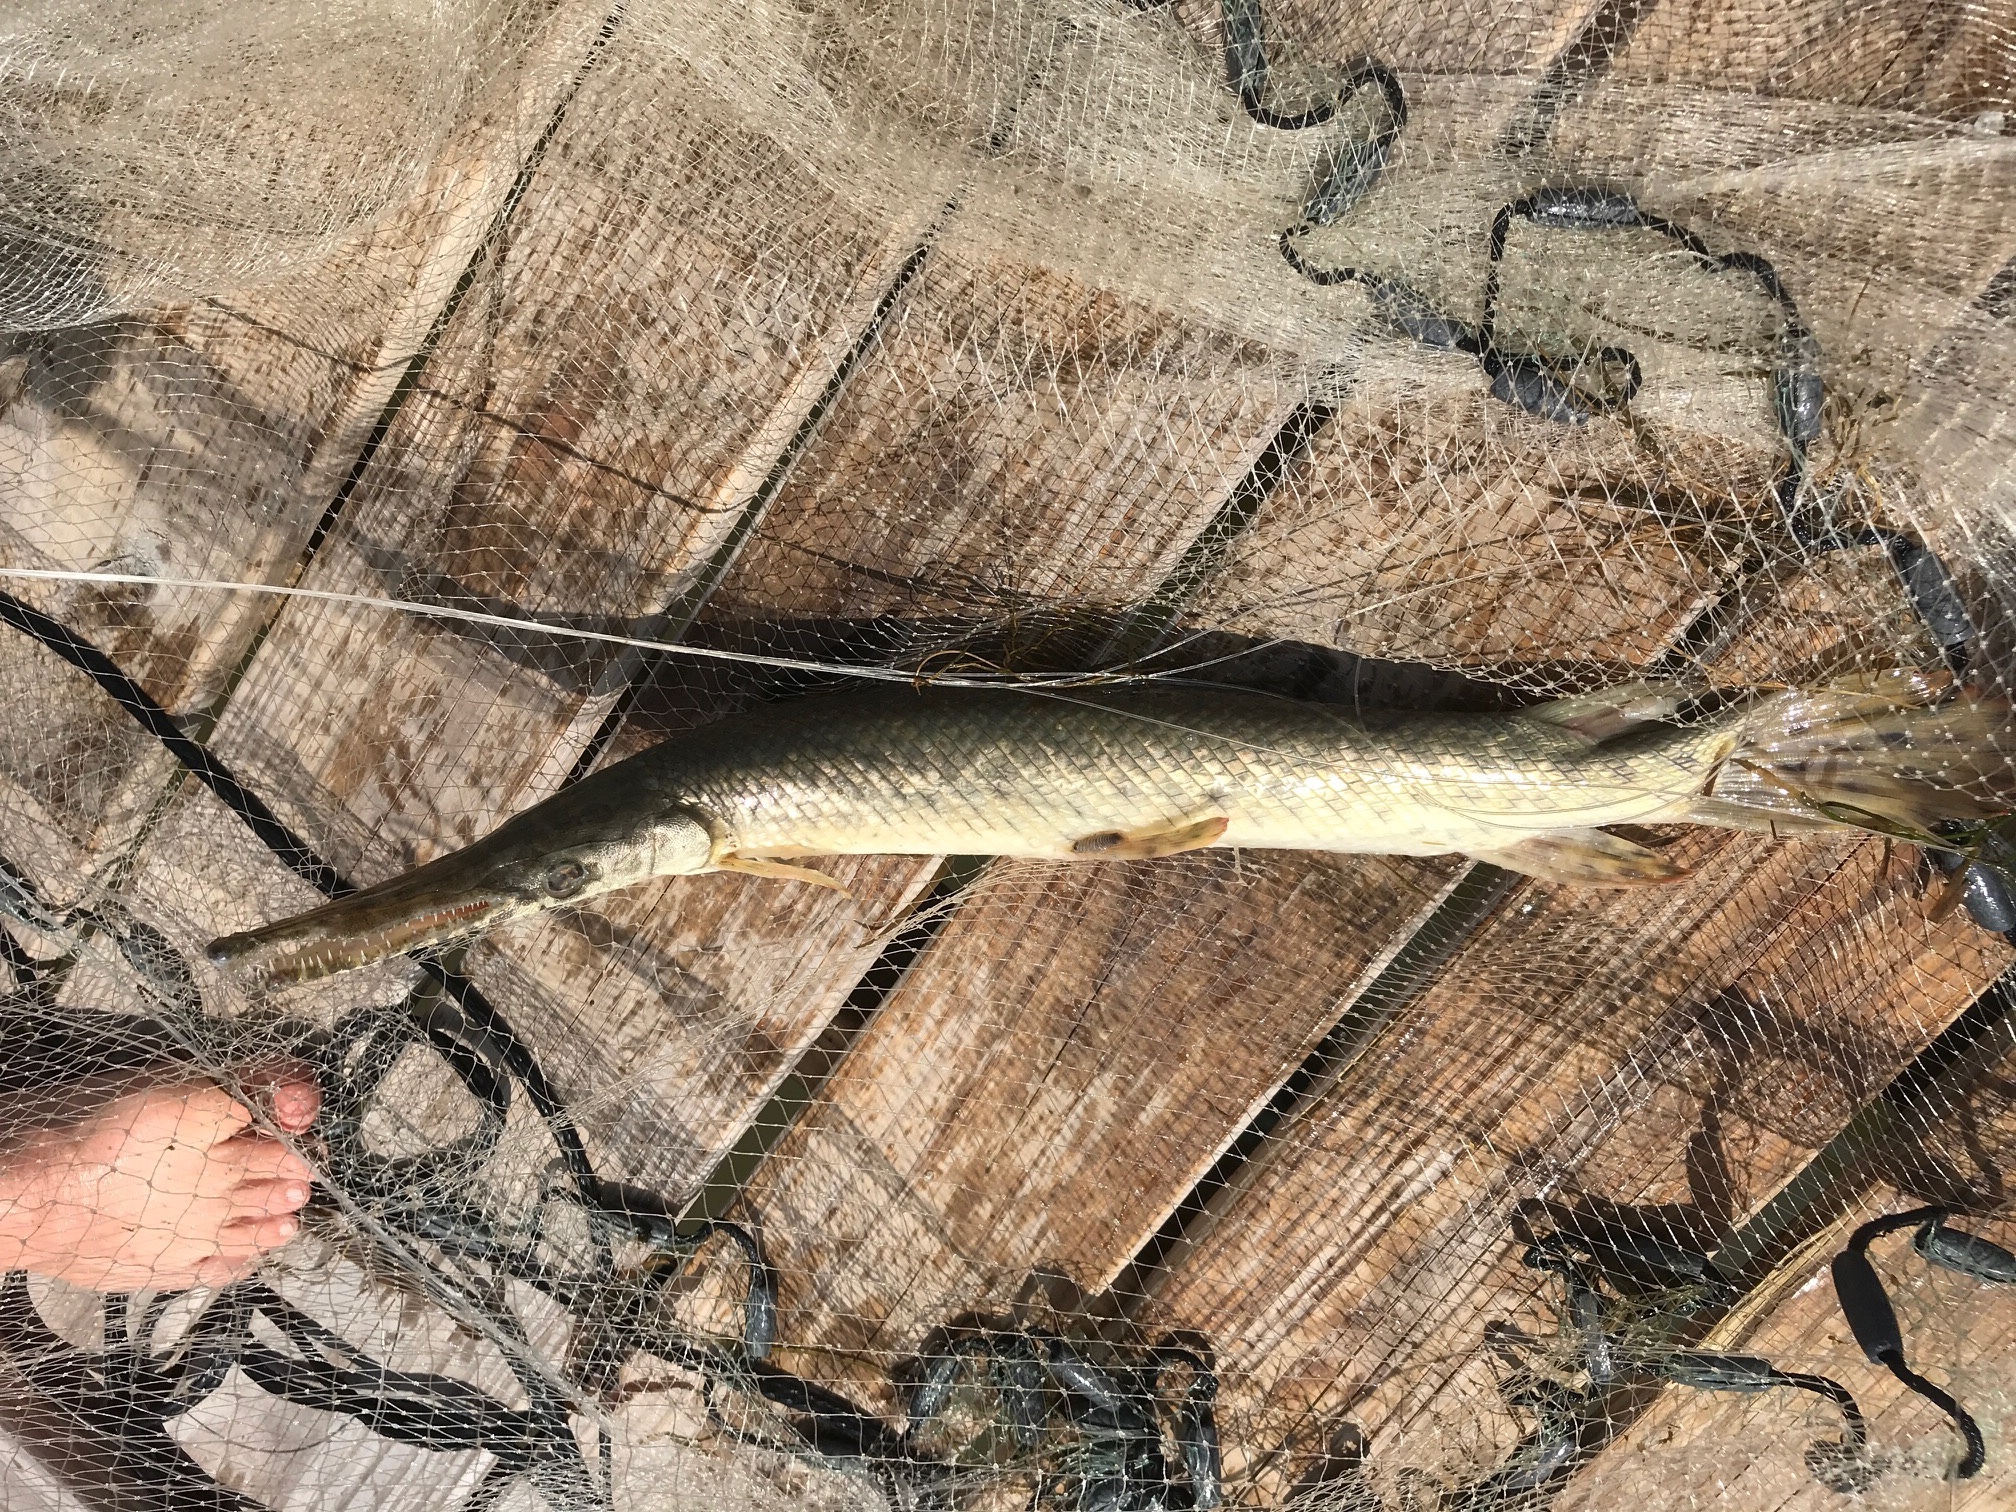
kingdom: Animalia
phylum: Chordata
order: Lepisosteiformes
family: Lepisosteidae
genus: Lepisosteus
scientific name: Lepisosteus oculatus
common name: Spotted gar
